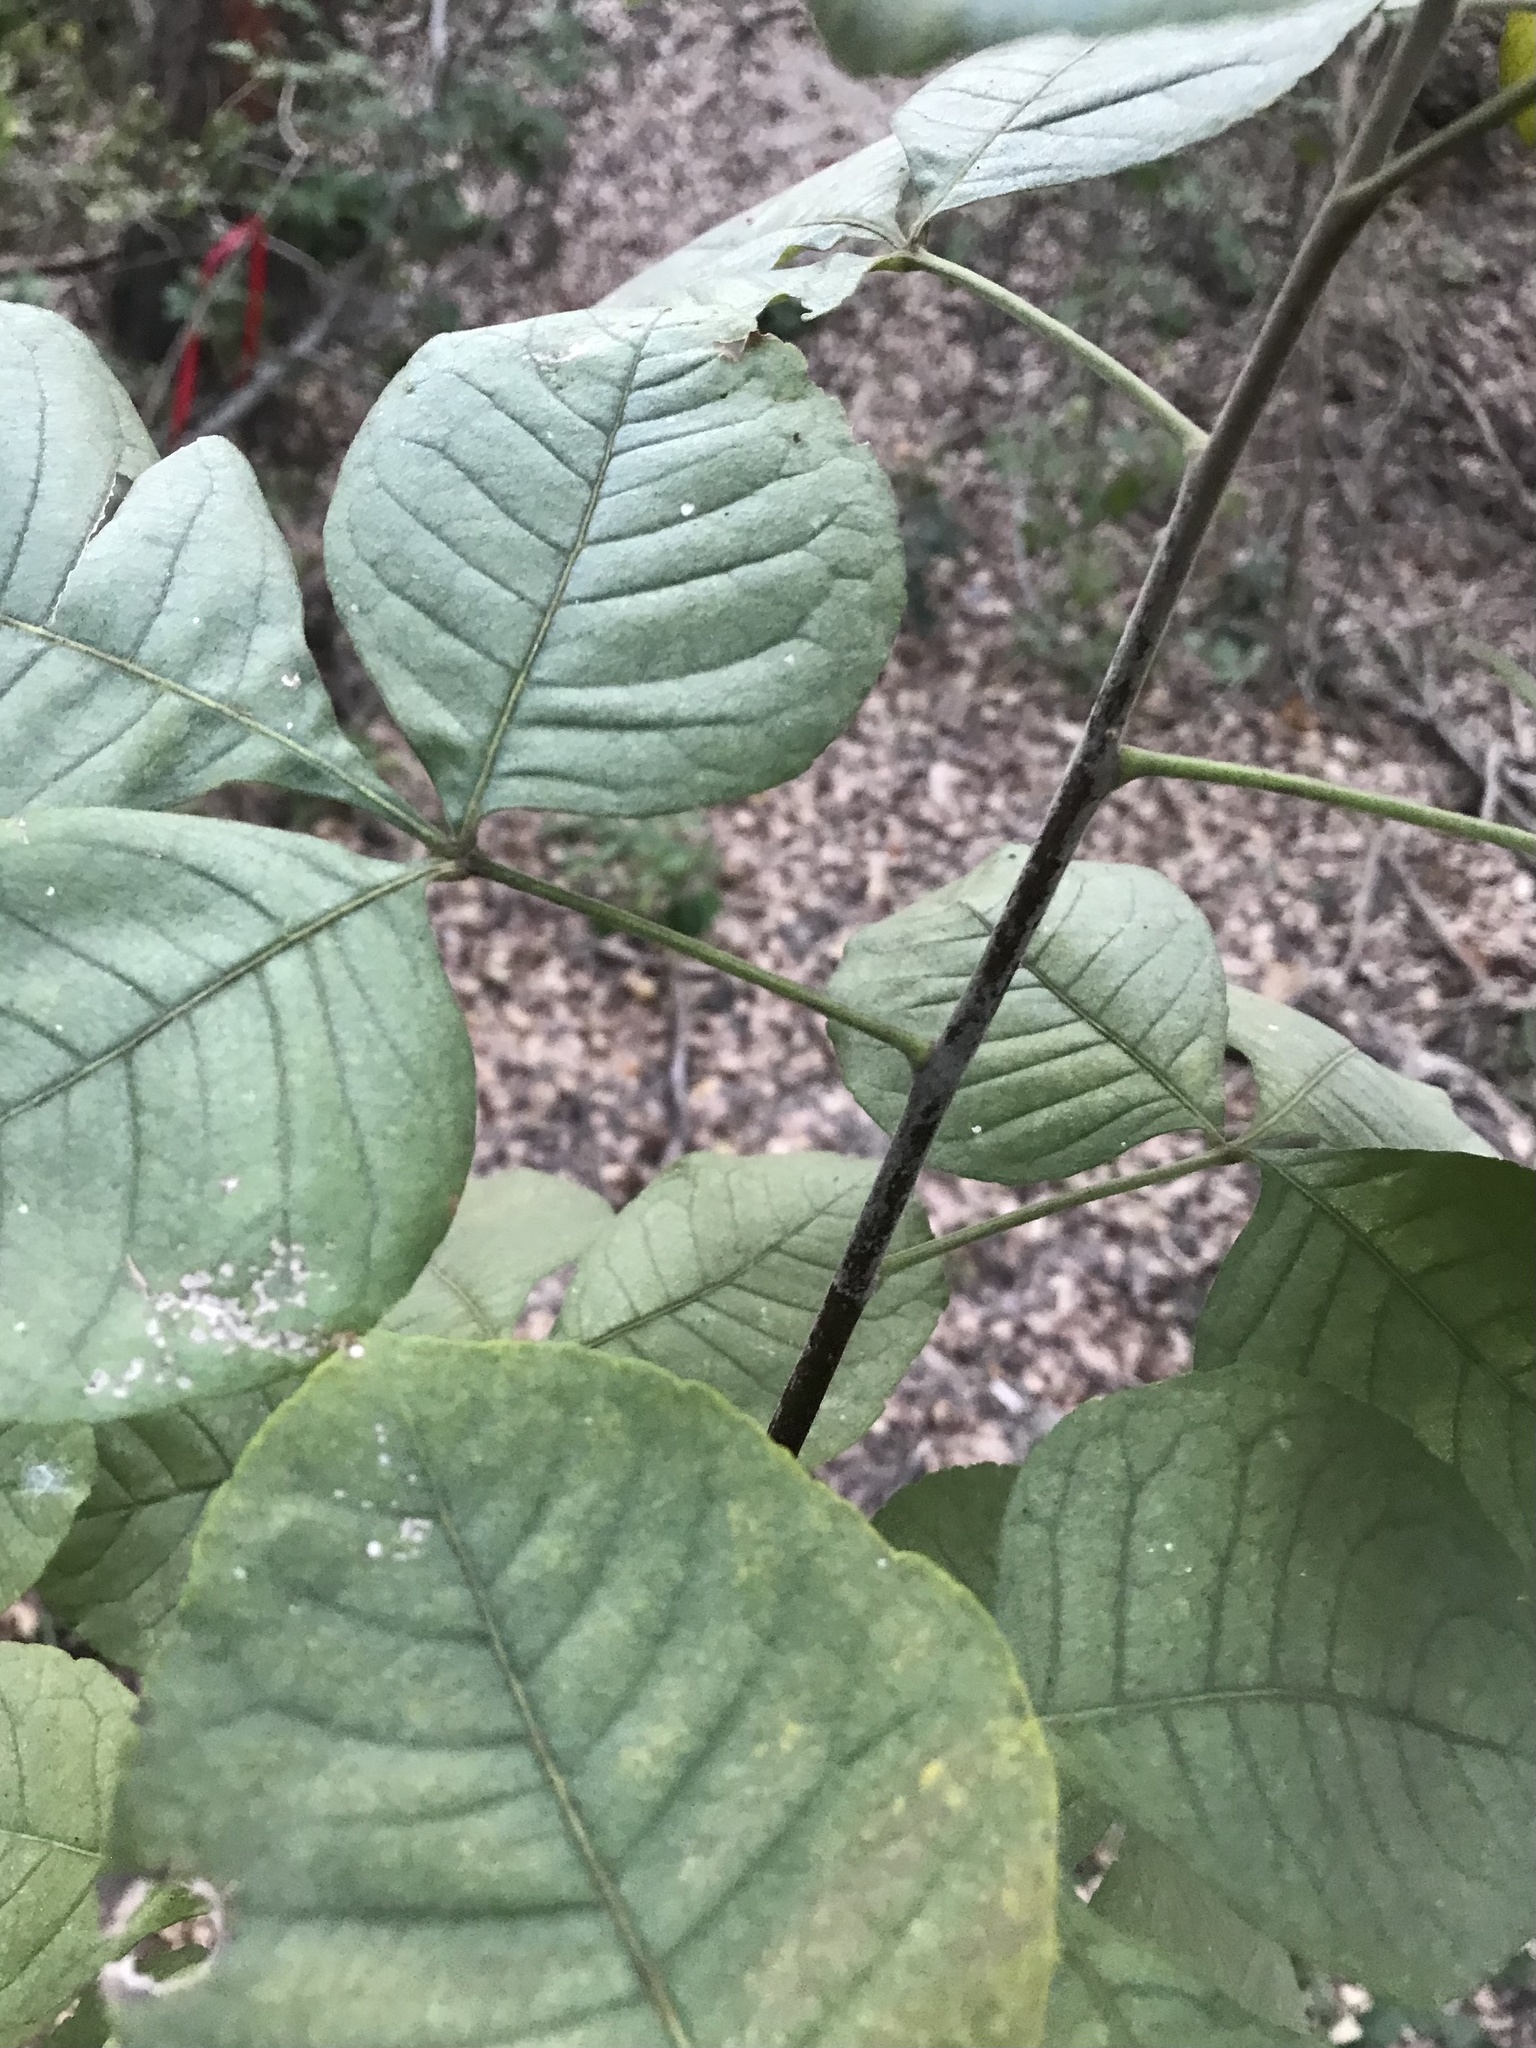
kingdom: Plantae
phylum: Tracheophyta
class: Magnoliopsida
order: Sapindales
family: Rutaceae
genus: Ptelea
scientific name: Ptelea trifoliata
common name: Common hop-tree
